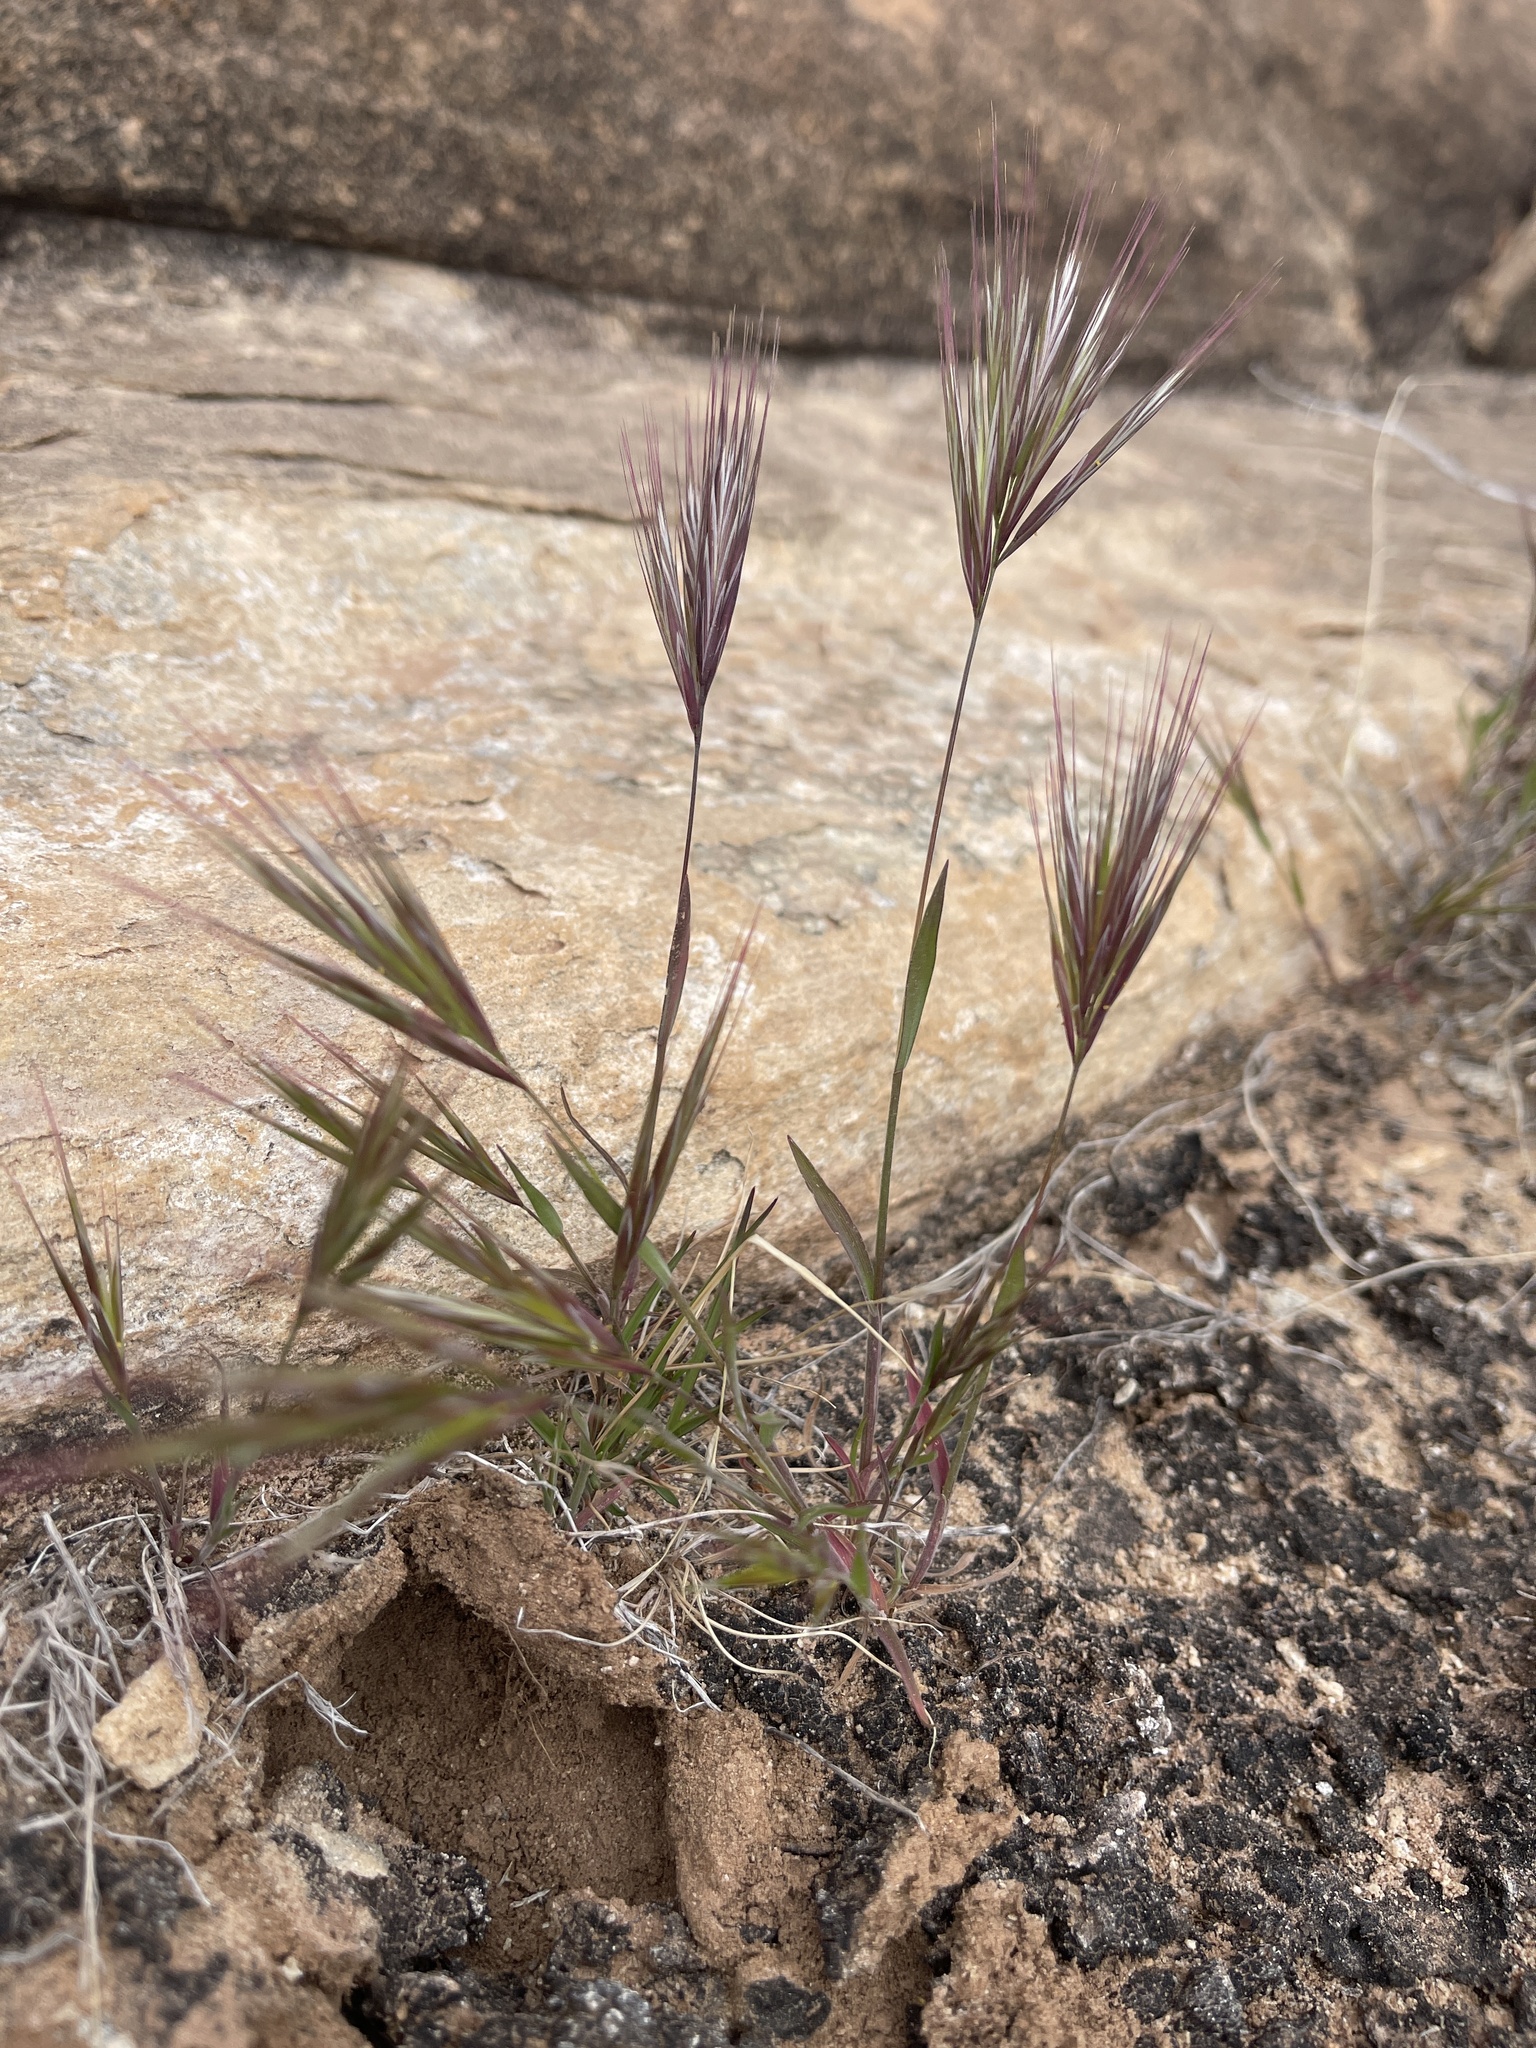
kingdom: Plantae
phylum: Tracheophyta
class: Liliopsida
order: Poales
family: Poaceae
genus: Bromus
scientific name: Bromus rubens
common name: Red brome
